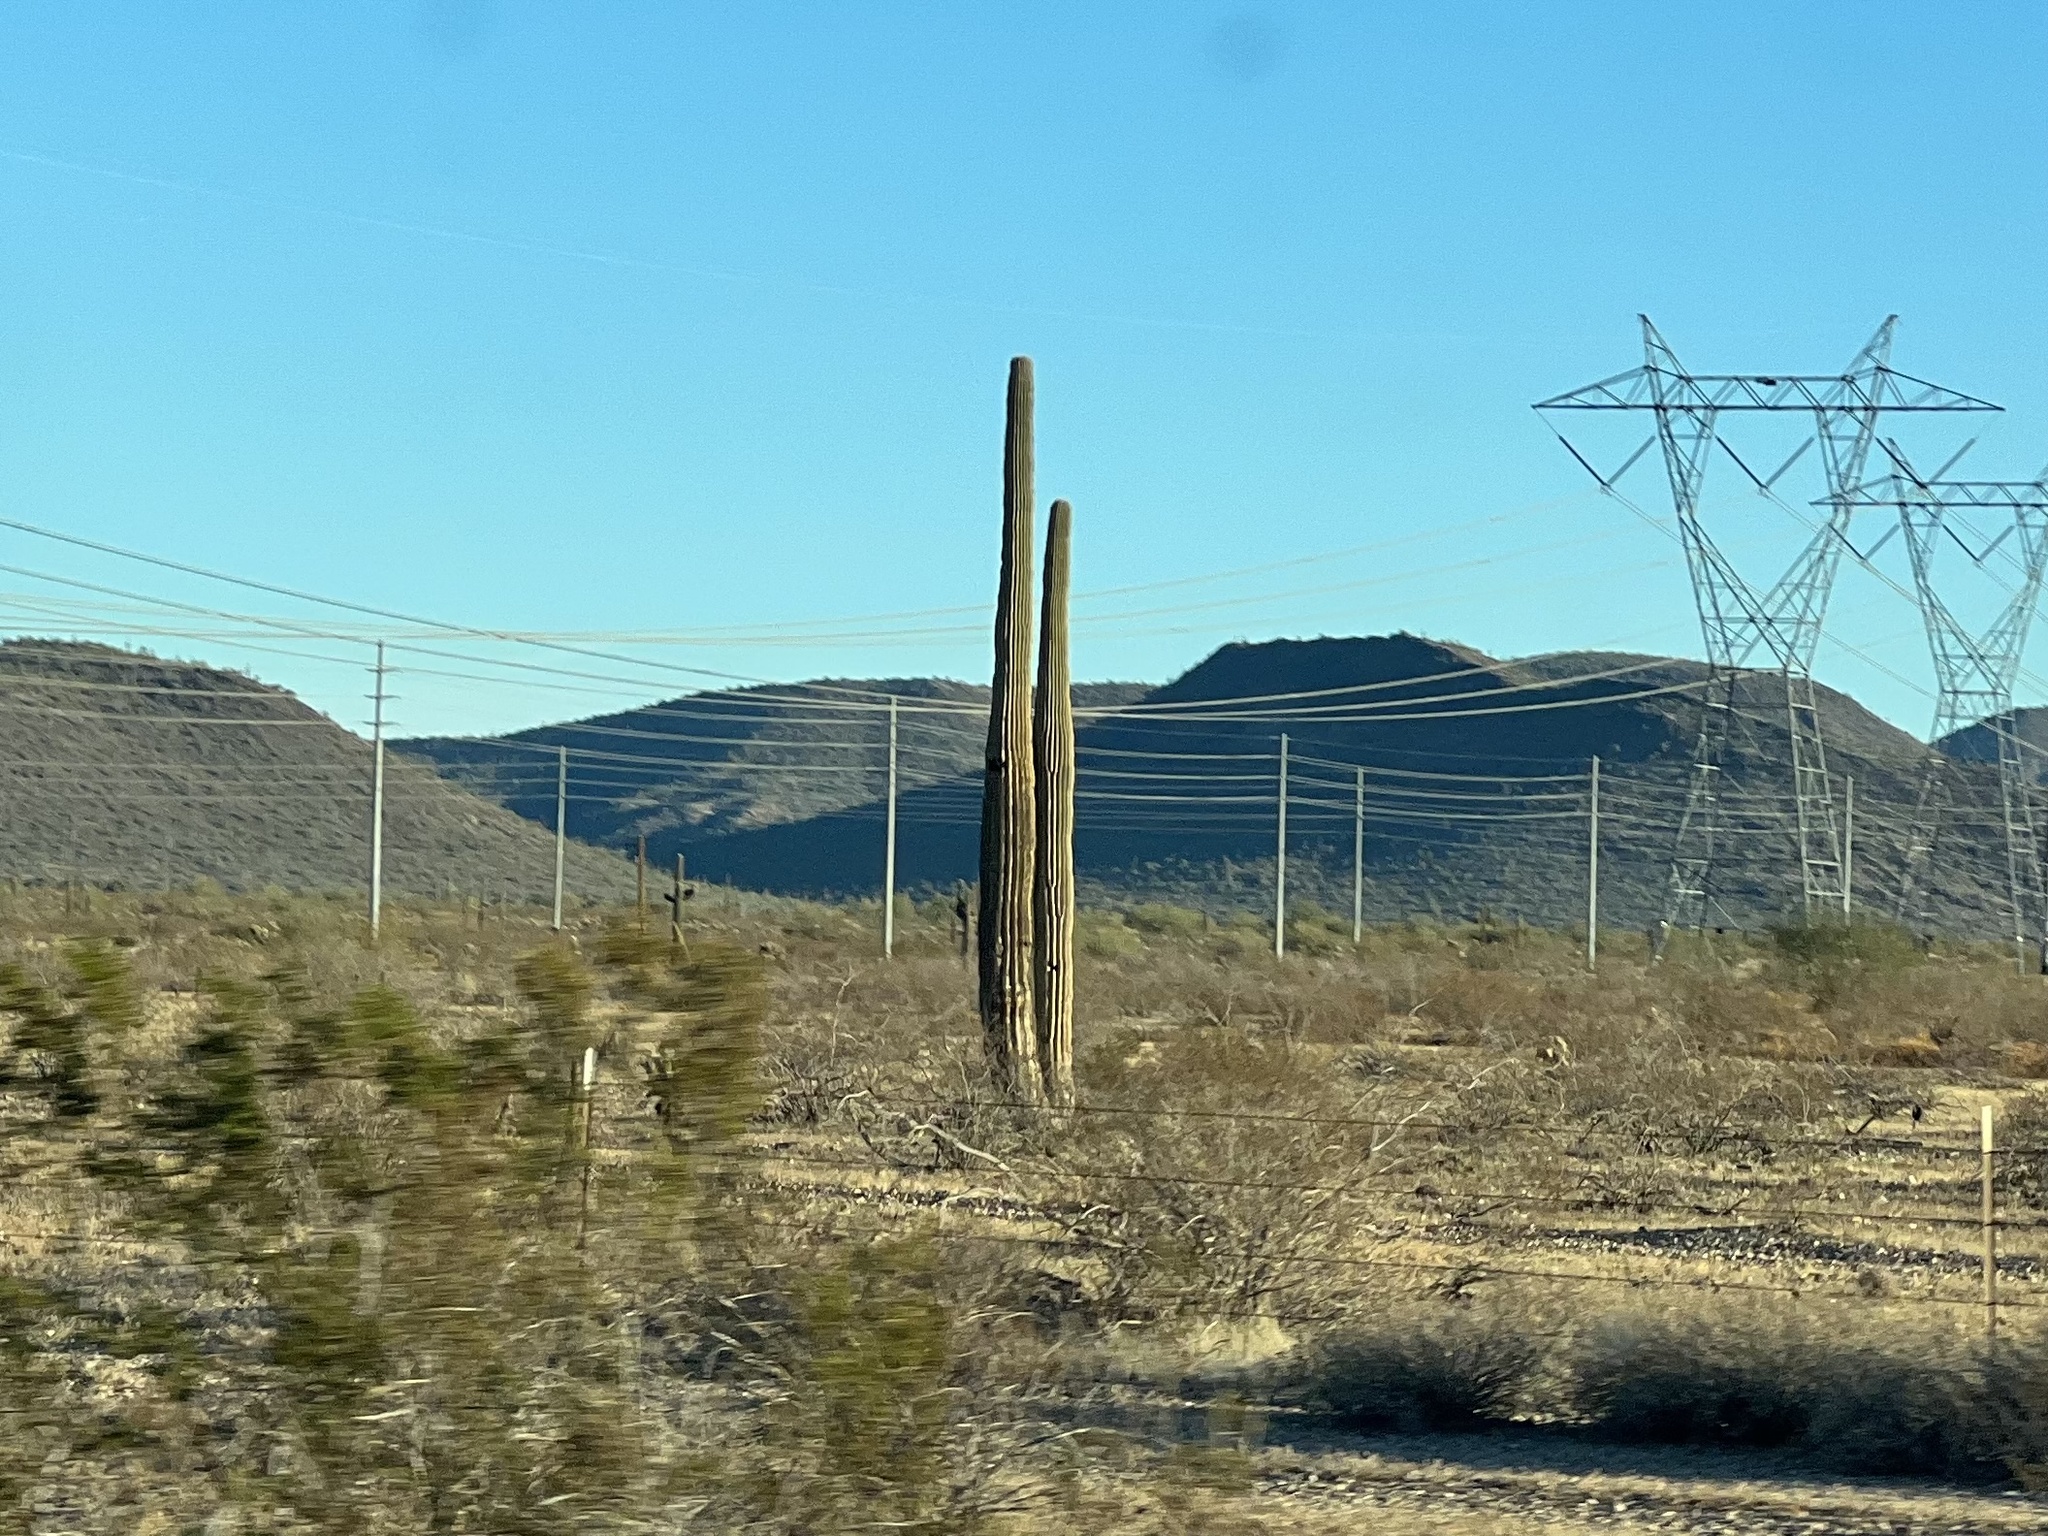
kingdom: Plantae
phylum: Tracheophyta
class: Magnoliopsida
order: Caryophyllales
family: Cactaceae
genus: Carnegiea
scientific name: Carnegiea gigantea
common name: Saguaro
